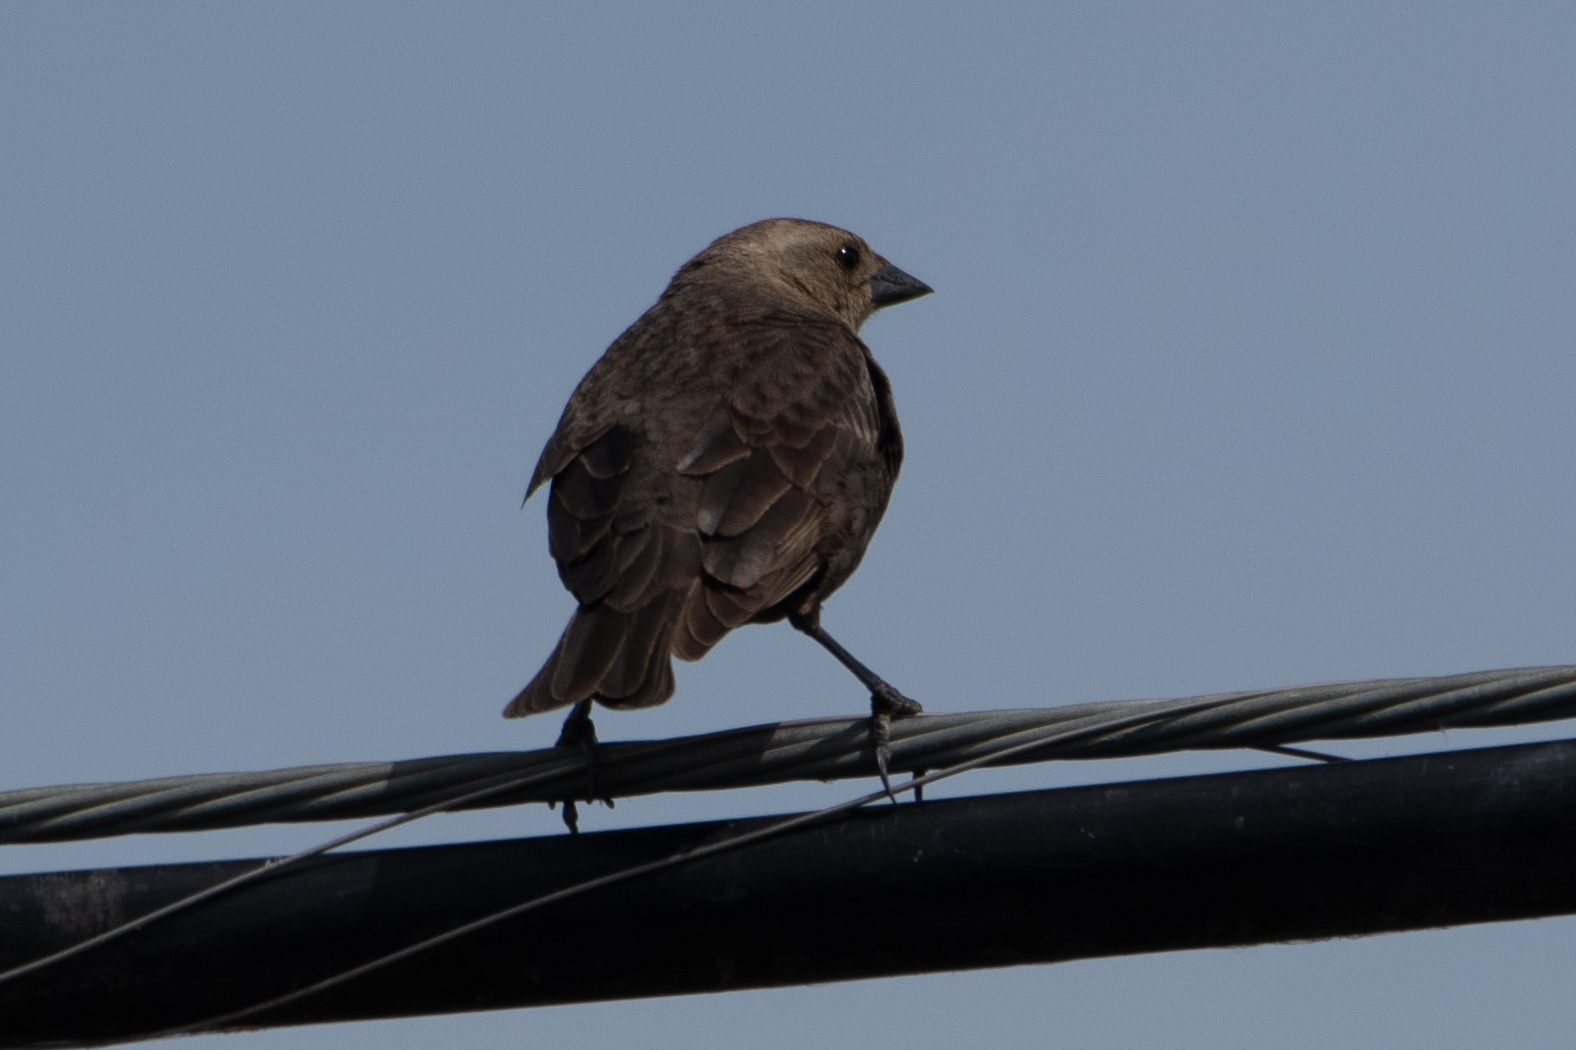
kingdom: Animalia
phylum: Chordata
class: Aves
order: Passeriformes
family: Icteridae
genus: Molothrus
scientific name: Molothrus ater
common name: Brown-headed cowbird
